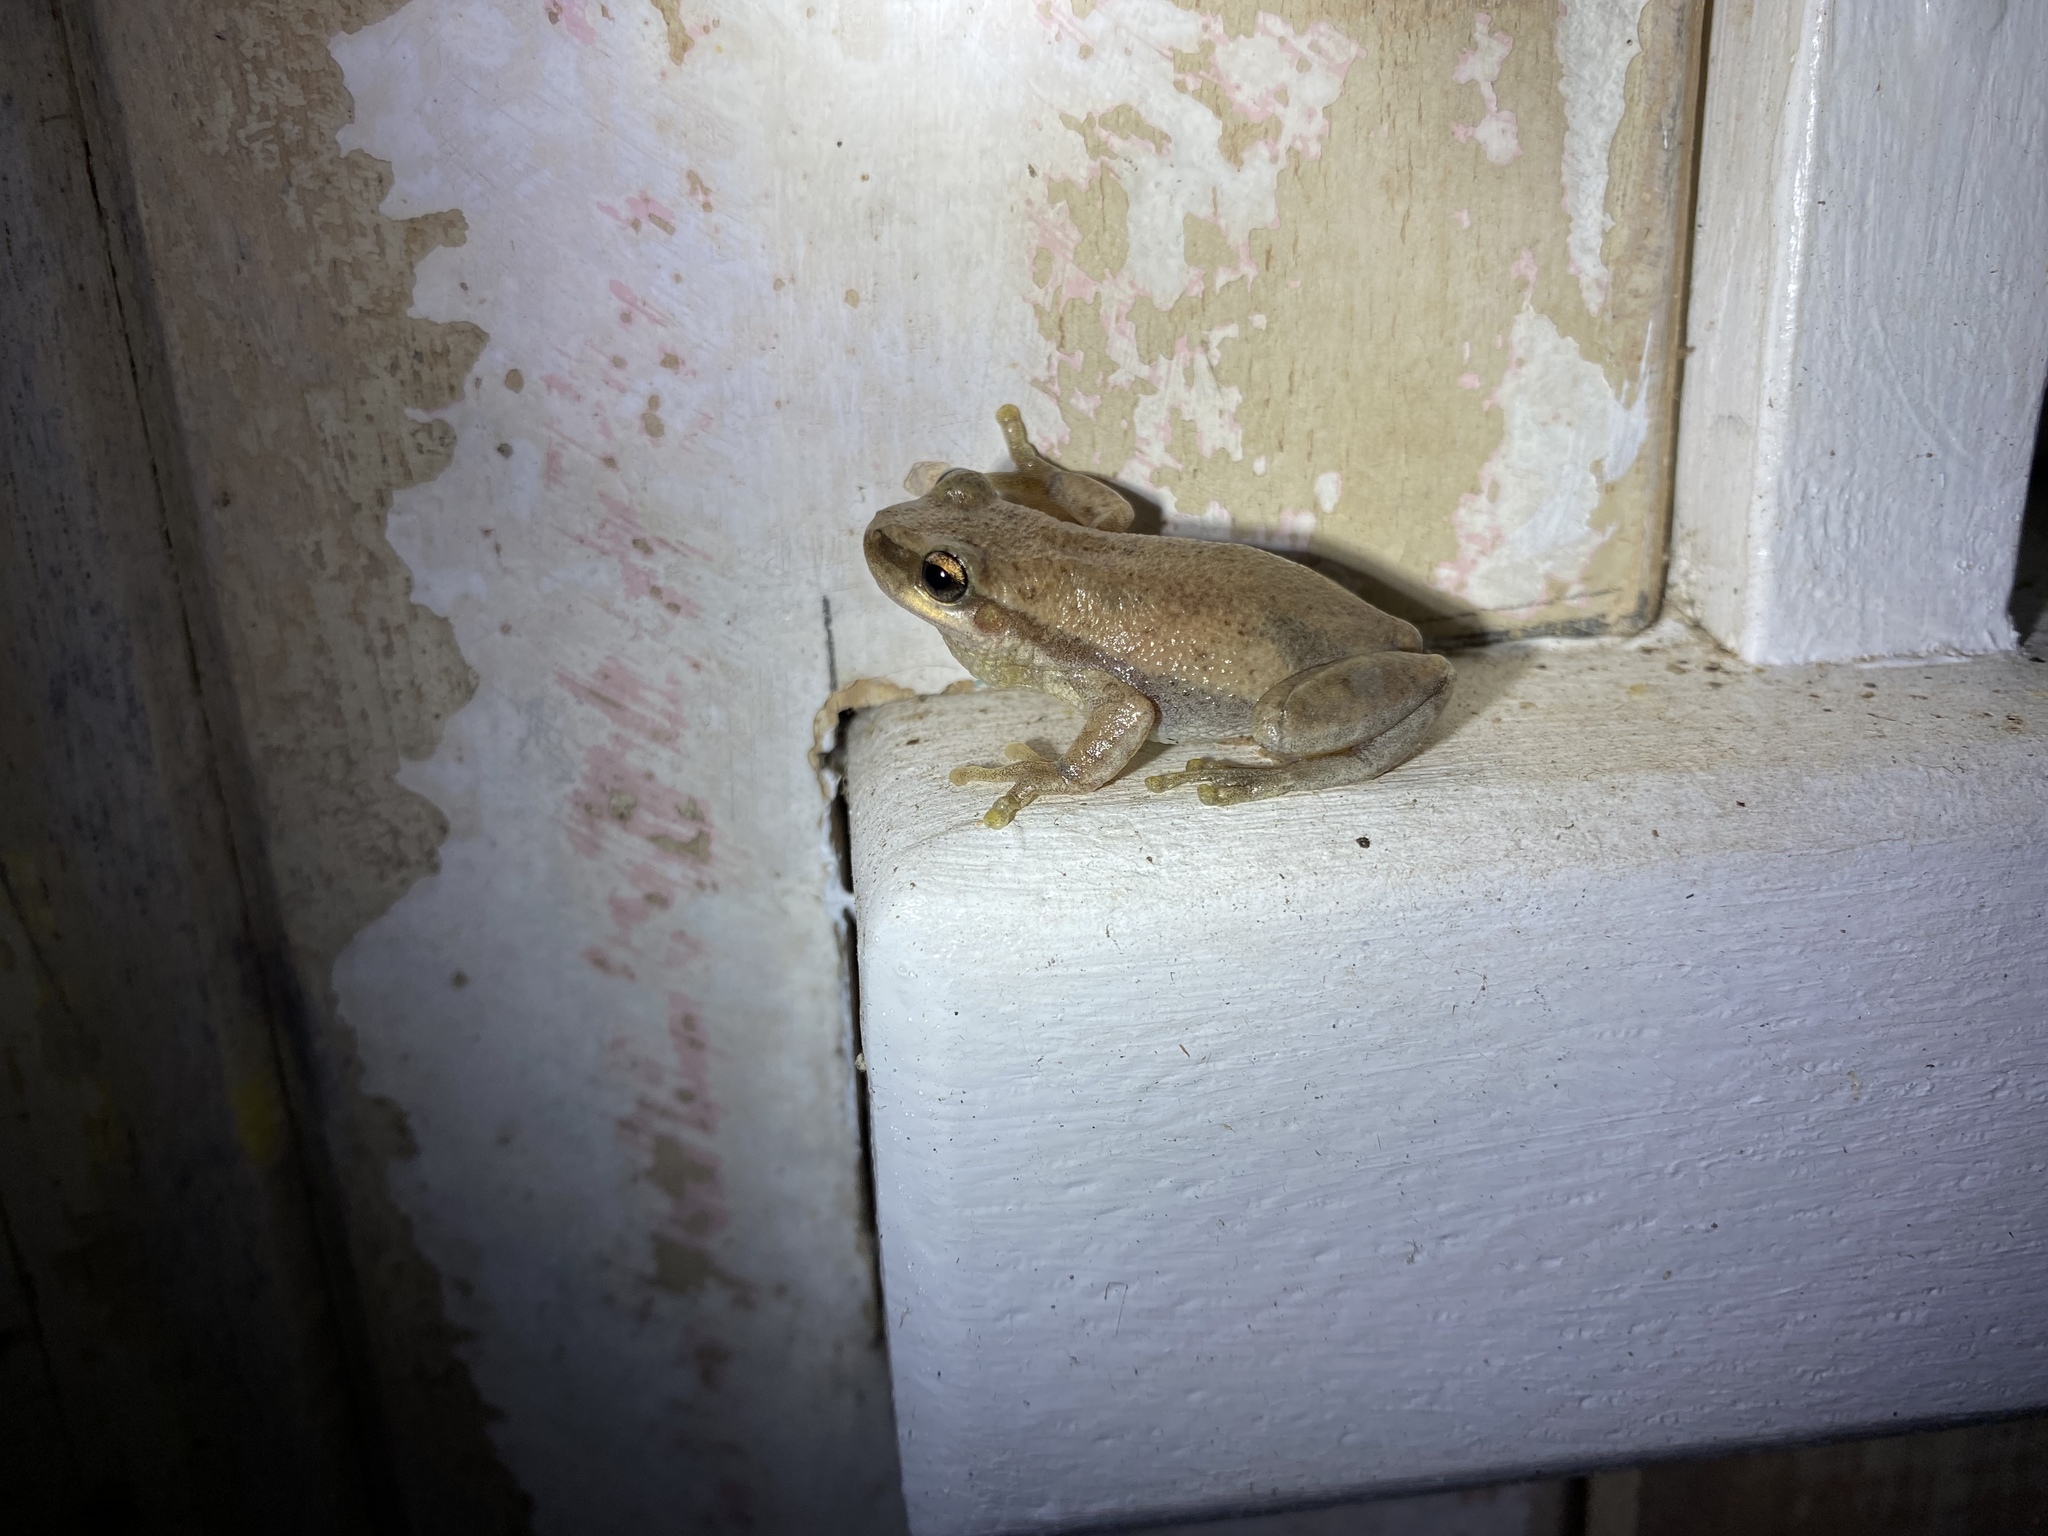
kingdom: Animalia
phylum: Chordata
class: Amphibia
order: Anura
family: Pelodryadidae
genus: Litoria
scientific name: Litoria rubella
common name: Desert tree frog
